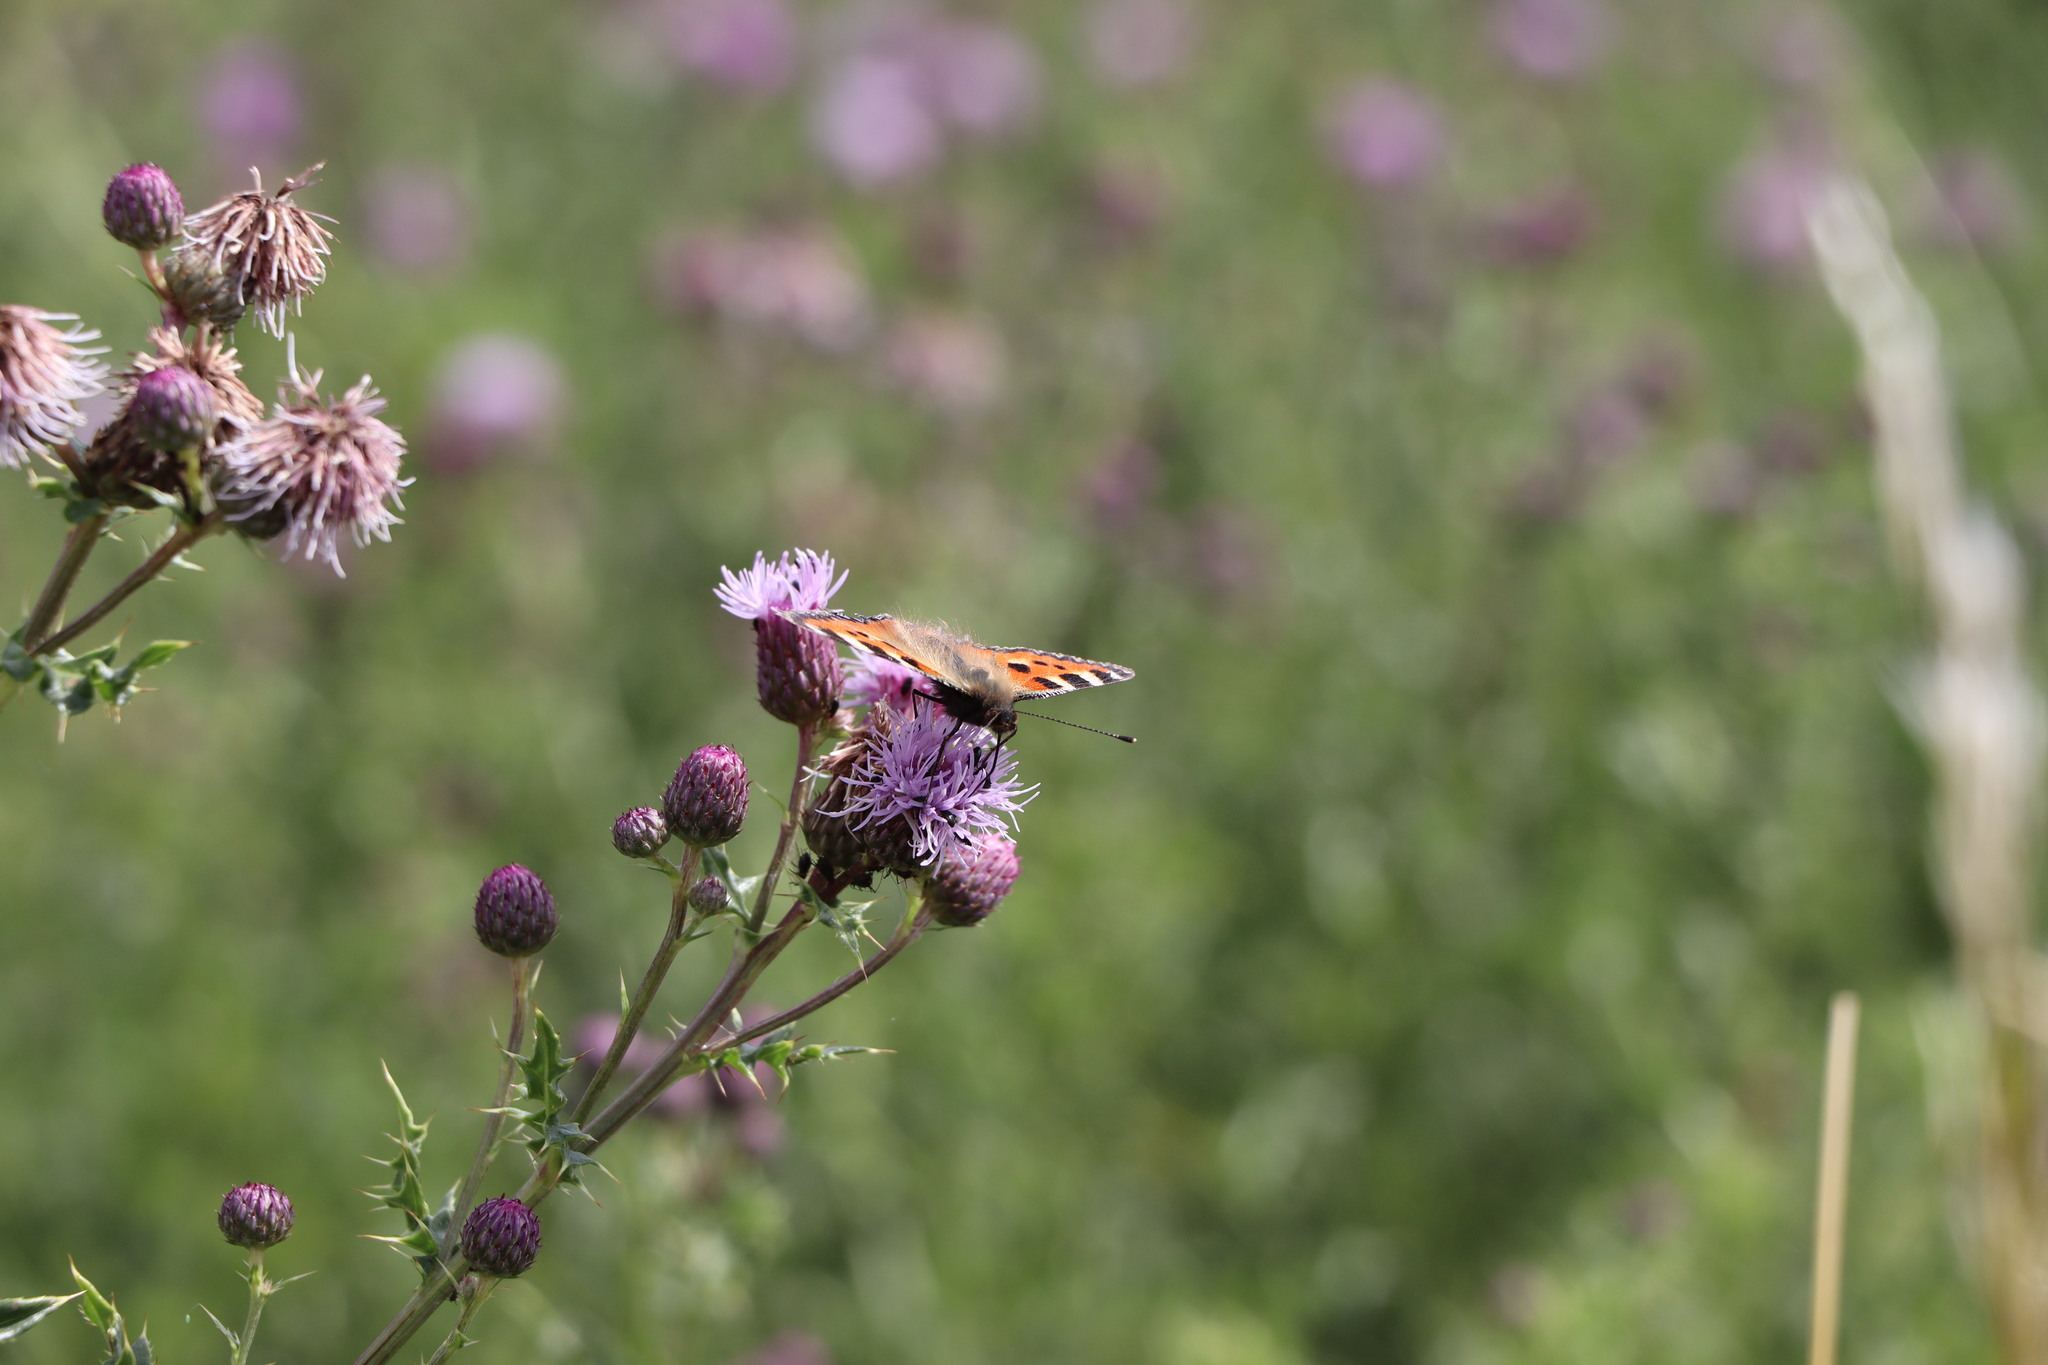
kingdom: Animalia
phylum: Arthropoda
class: Insecta
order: Lepidoptera
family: Nymphalidae
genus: Aglais
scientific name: Aglais urticae
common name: Small tortoiseshell
